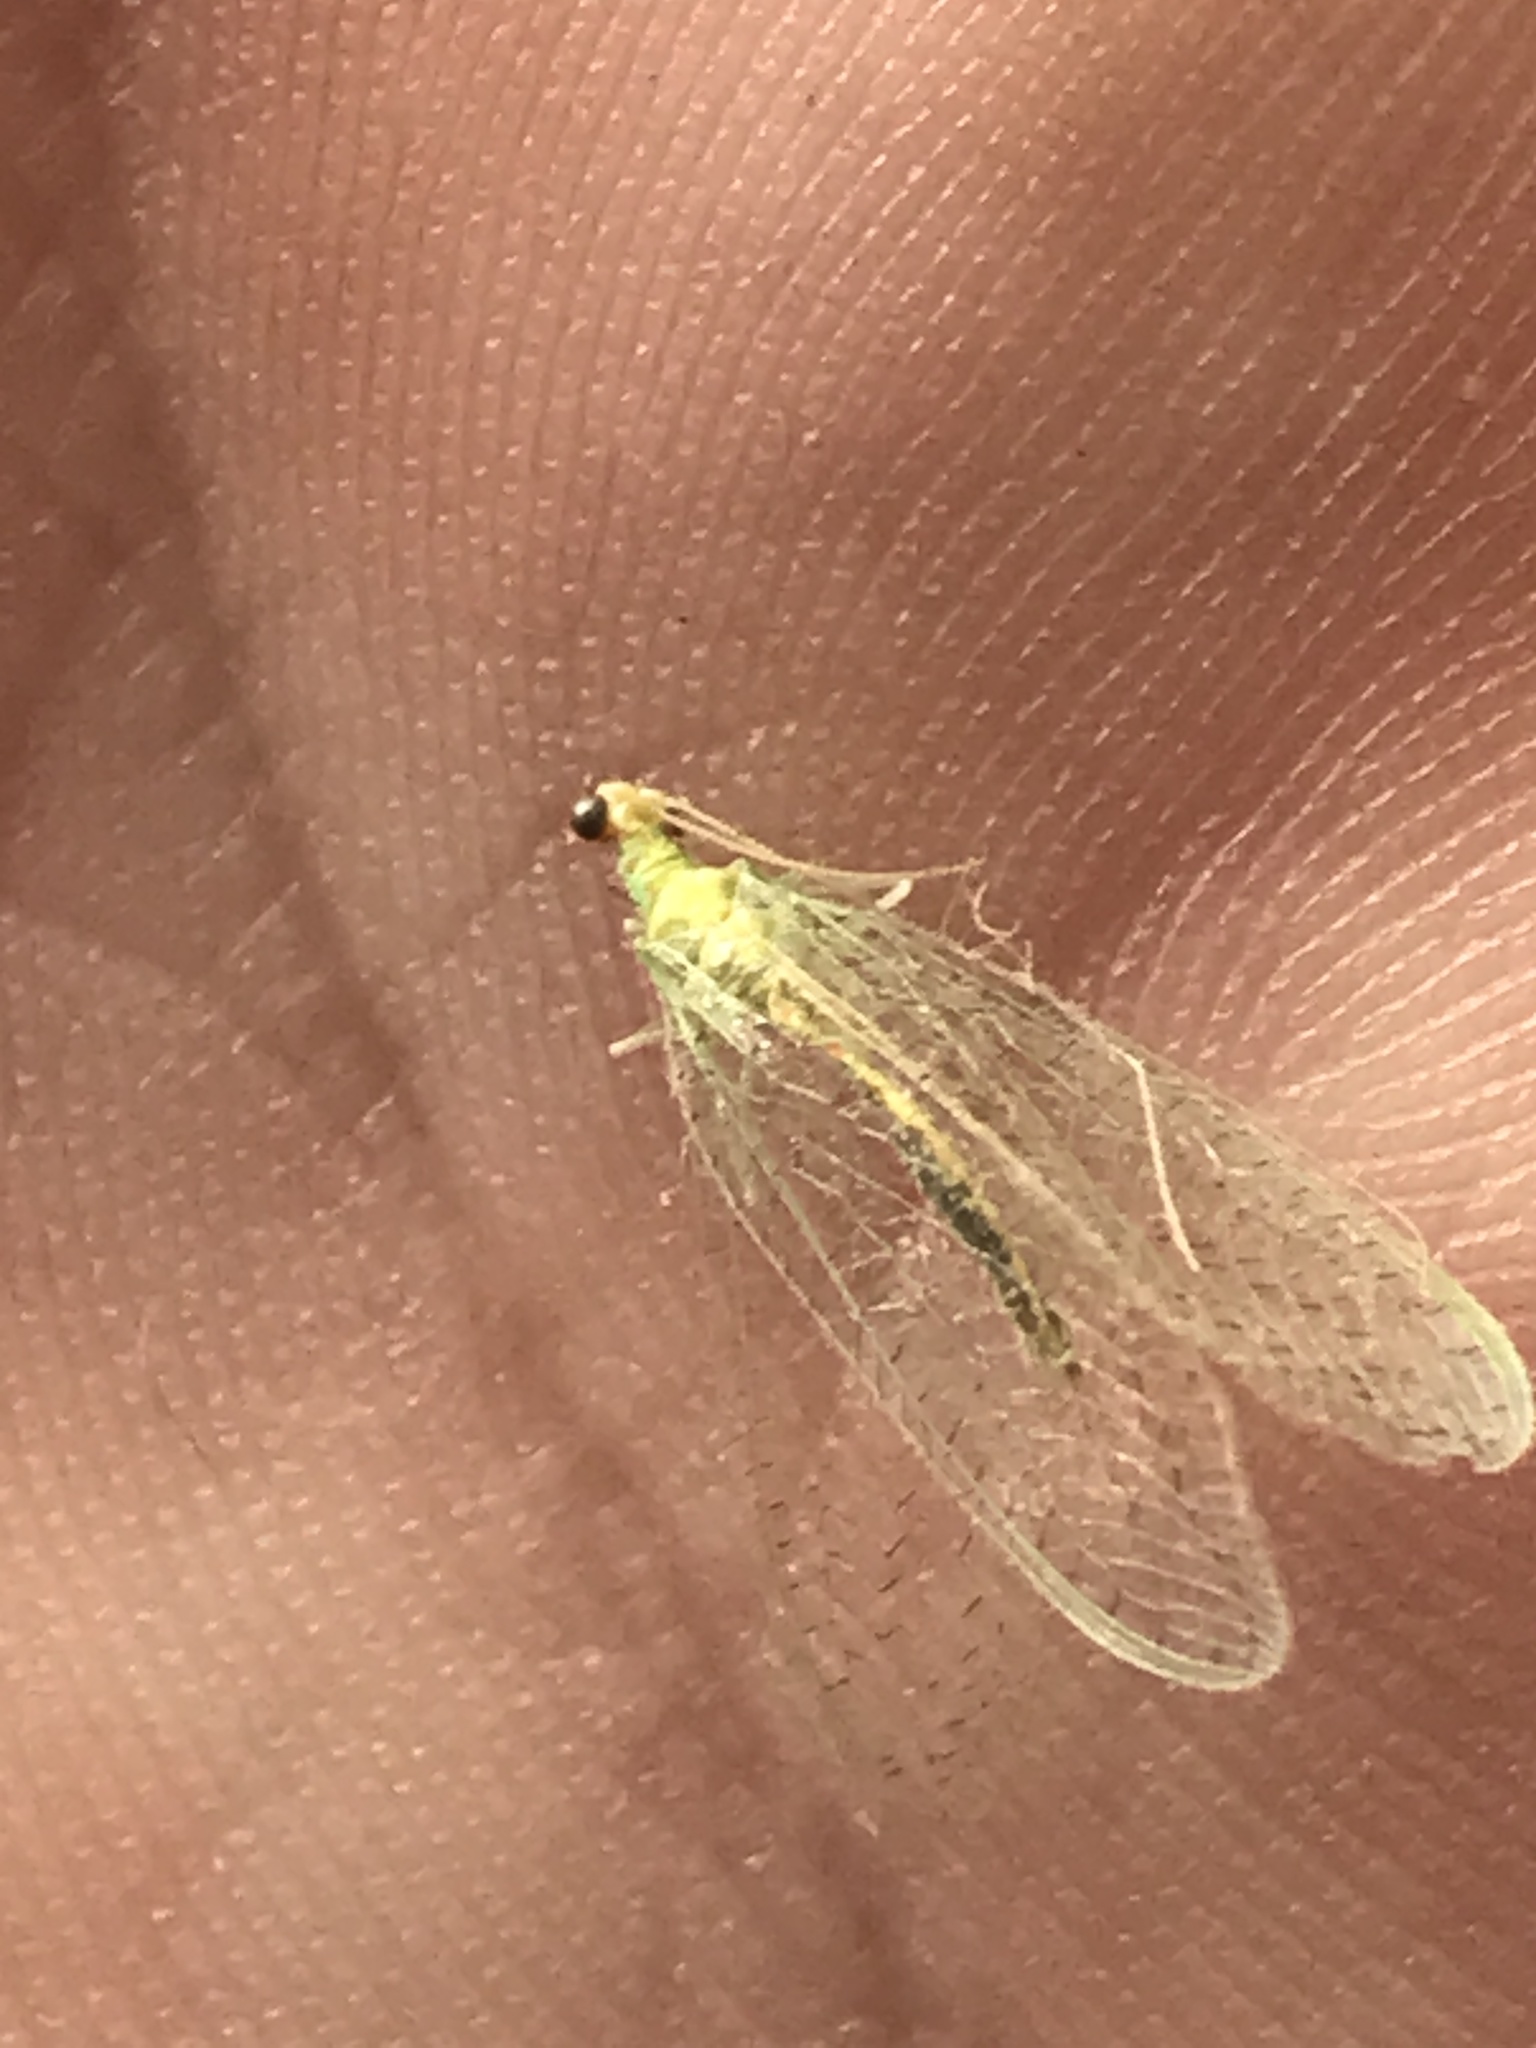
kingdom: Animalia
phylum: Arthropoda
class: Insecta
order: Neuroptera
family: Chrysopidae
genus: Chrysopa
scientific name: Chrysopa quadripunctata
